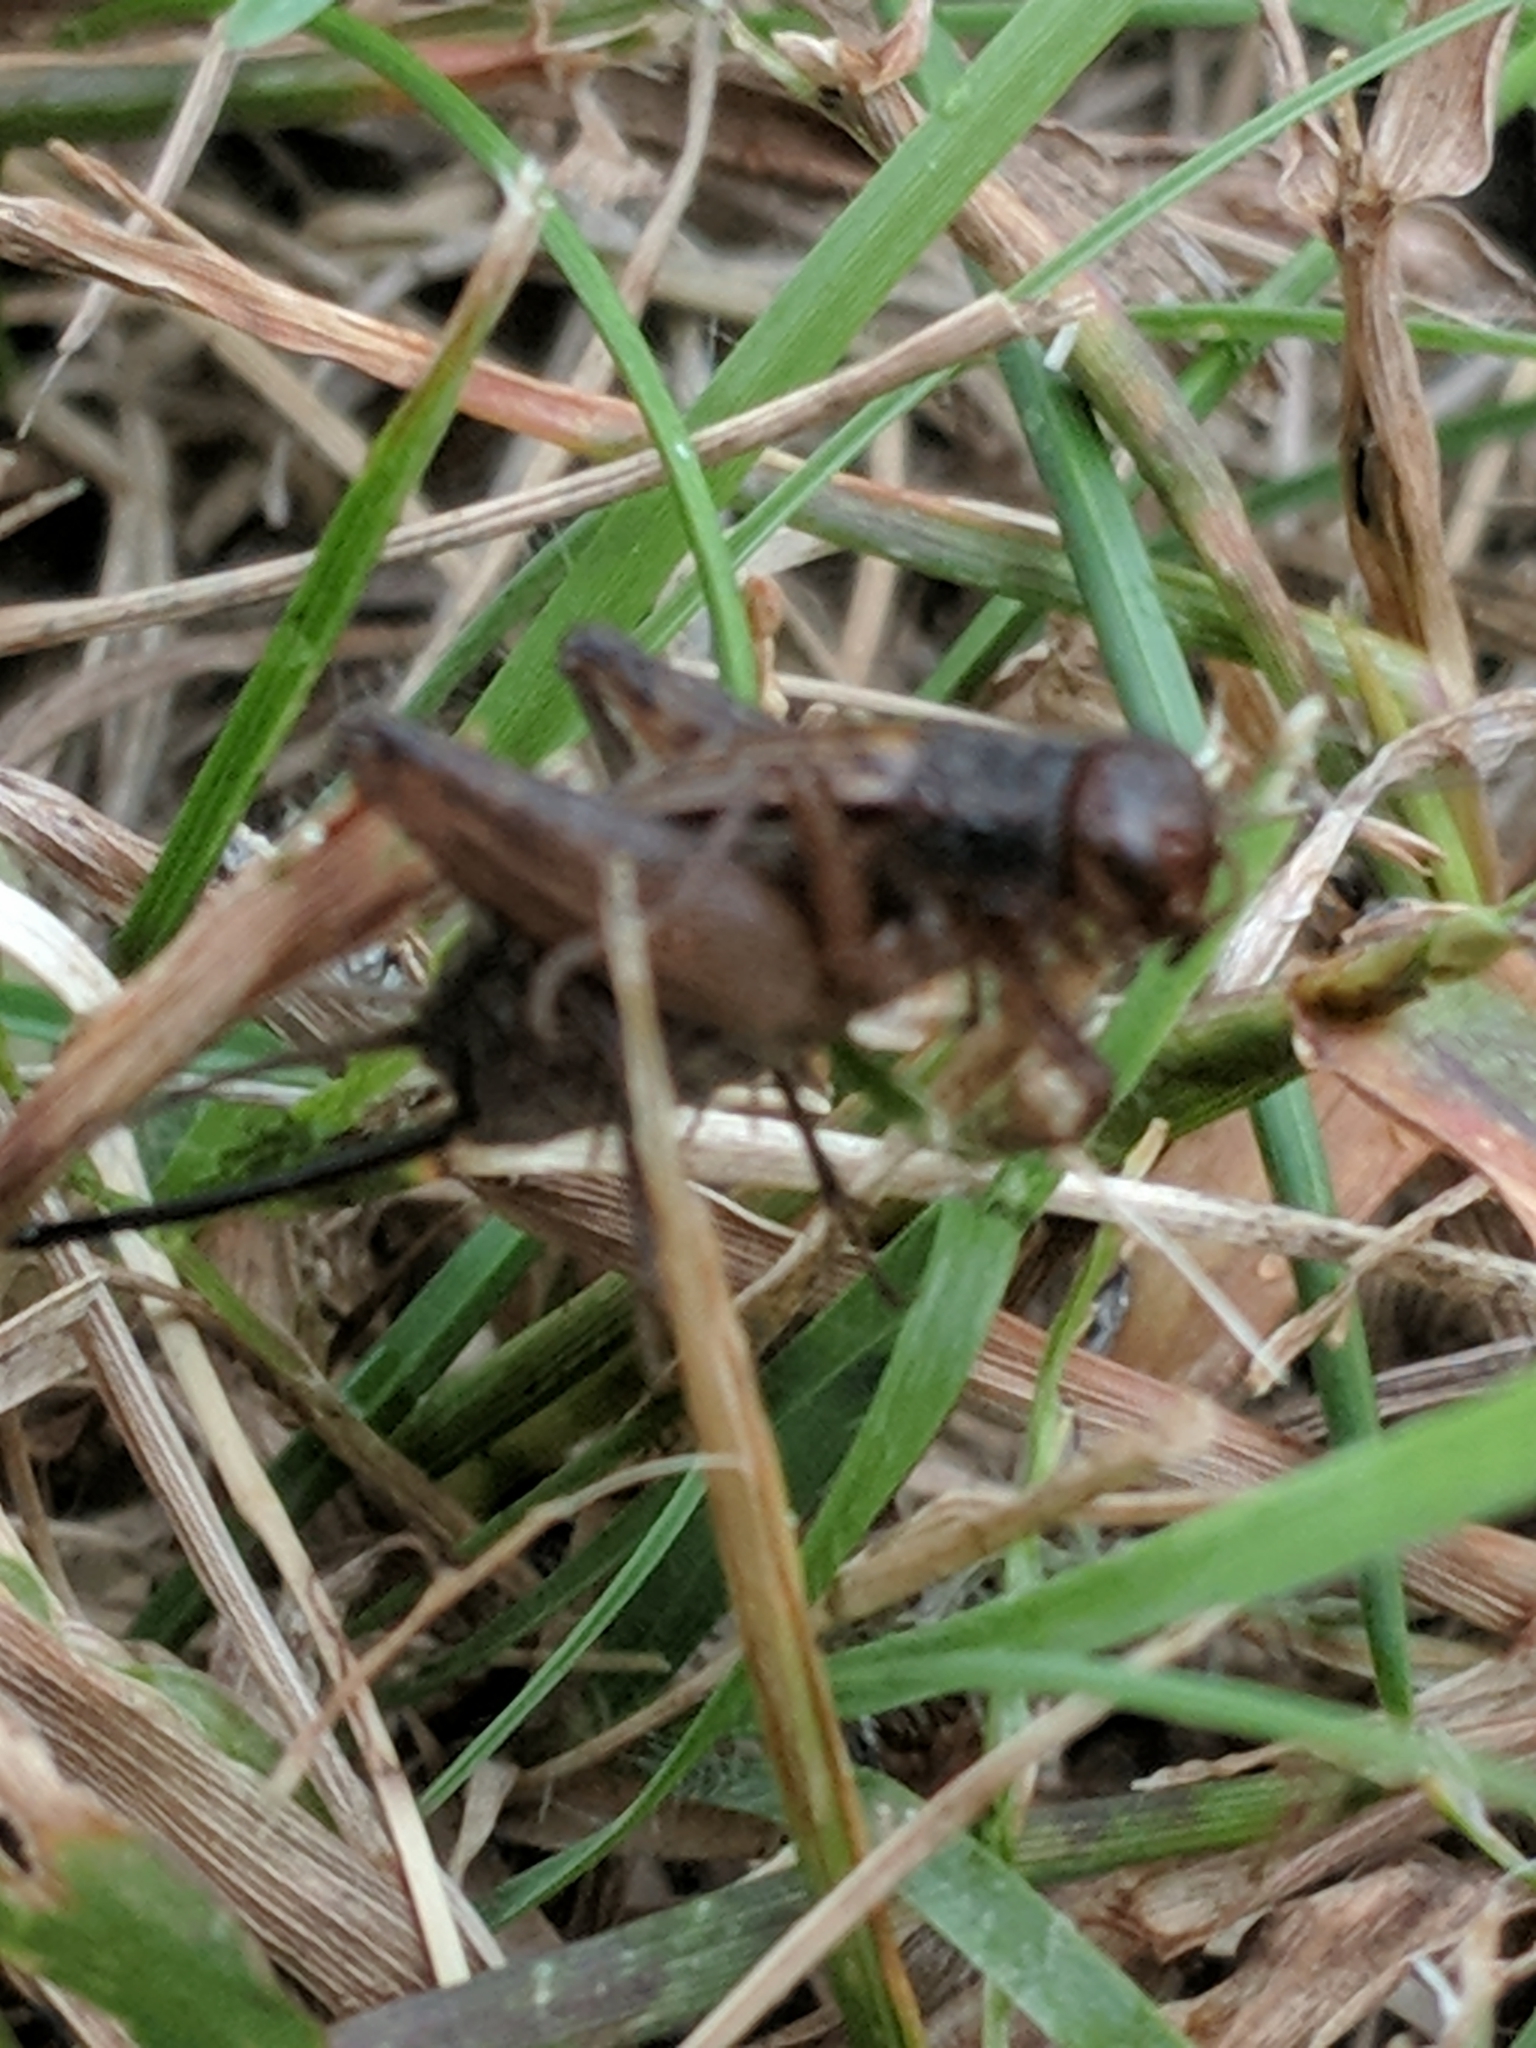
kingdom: Animalia
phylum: Arthropoda
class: Insecta
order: Orthoptera
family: Trigonidiidae
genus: Allonemobius
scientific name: Allonemobius
